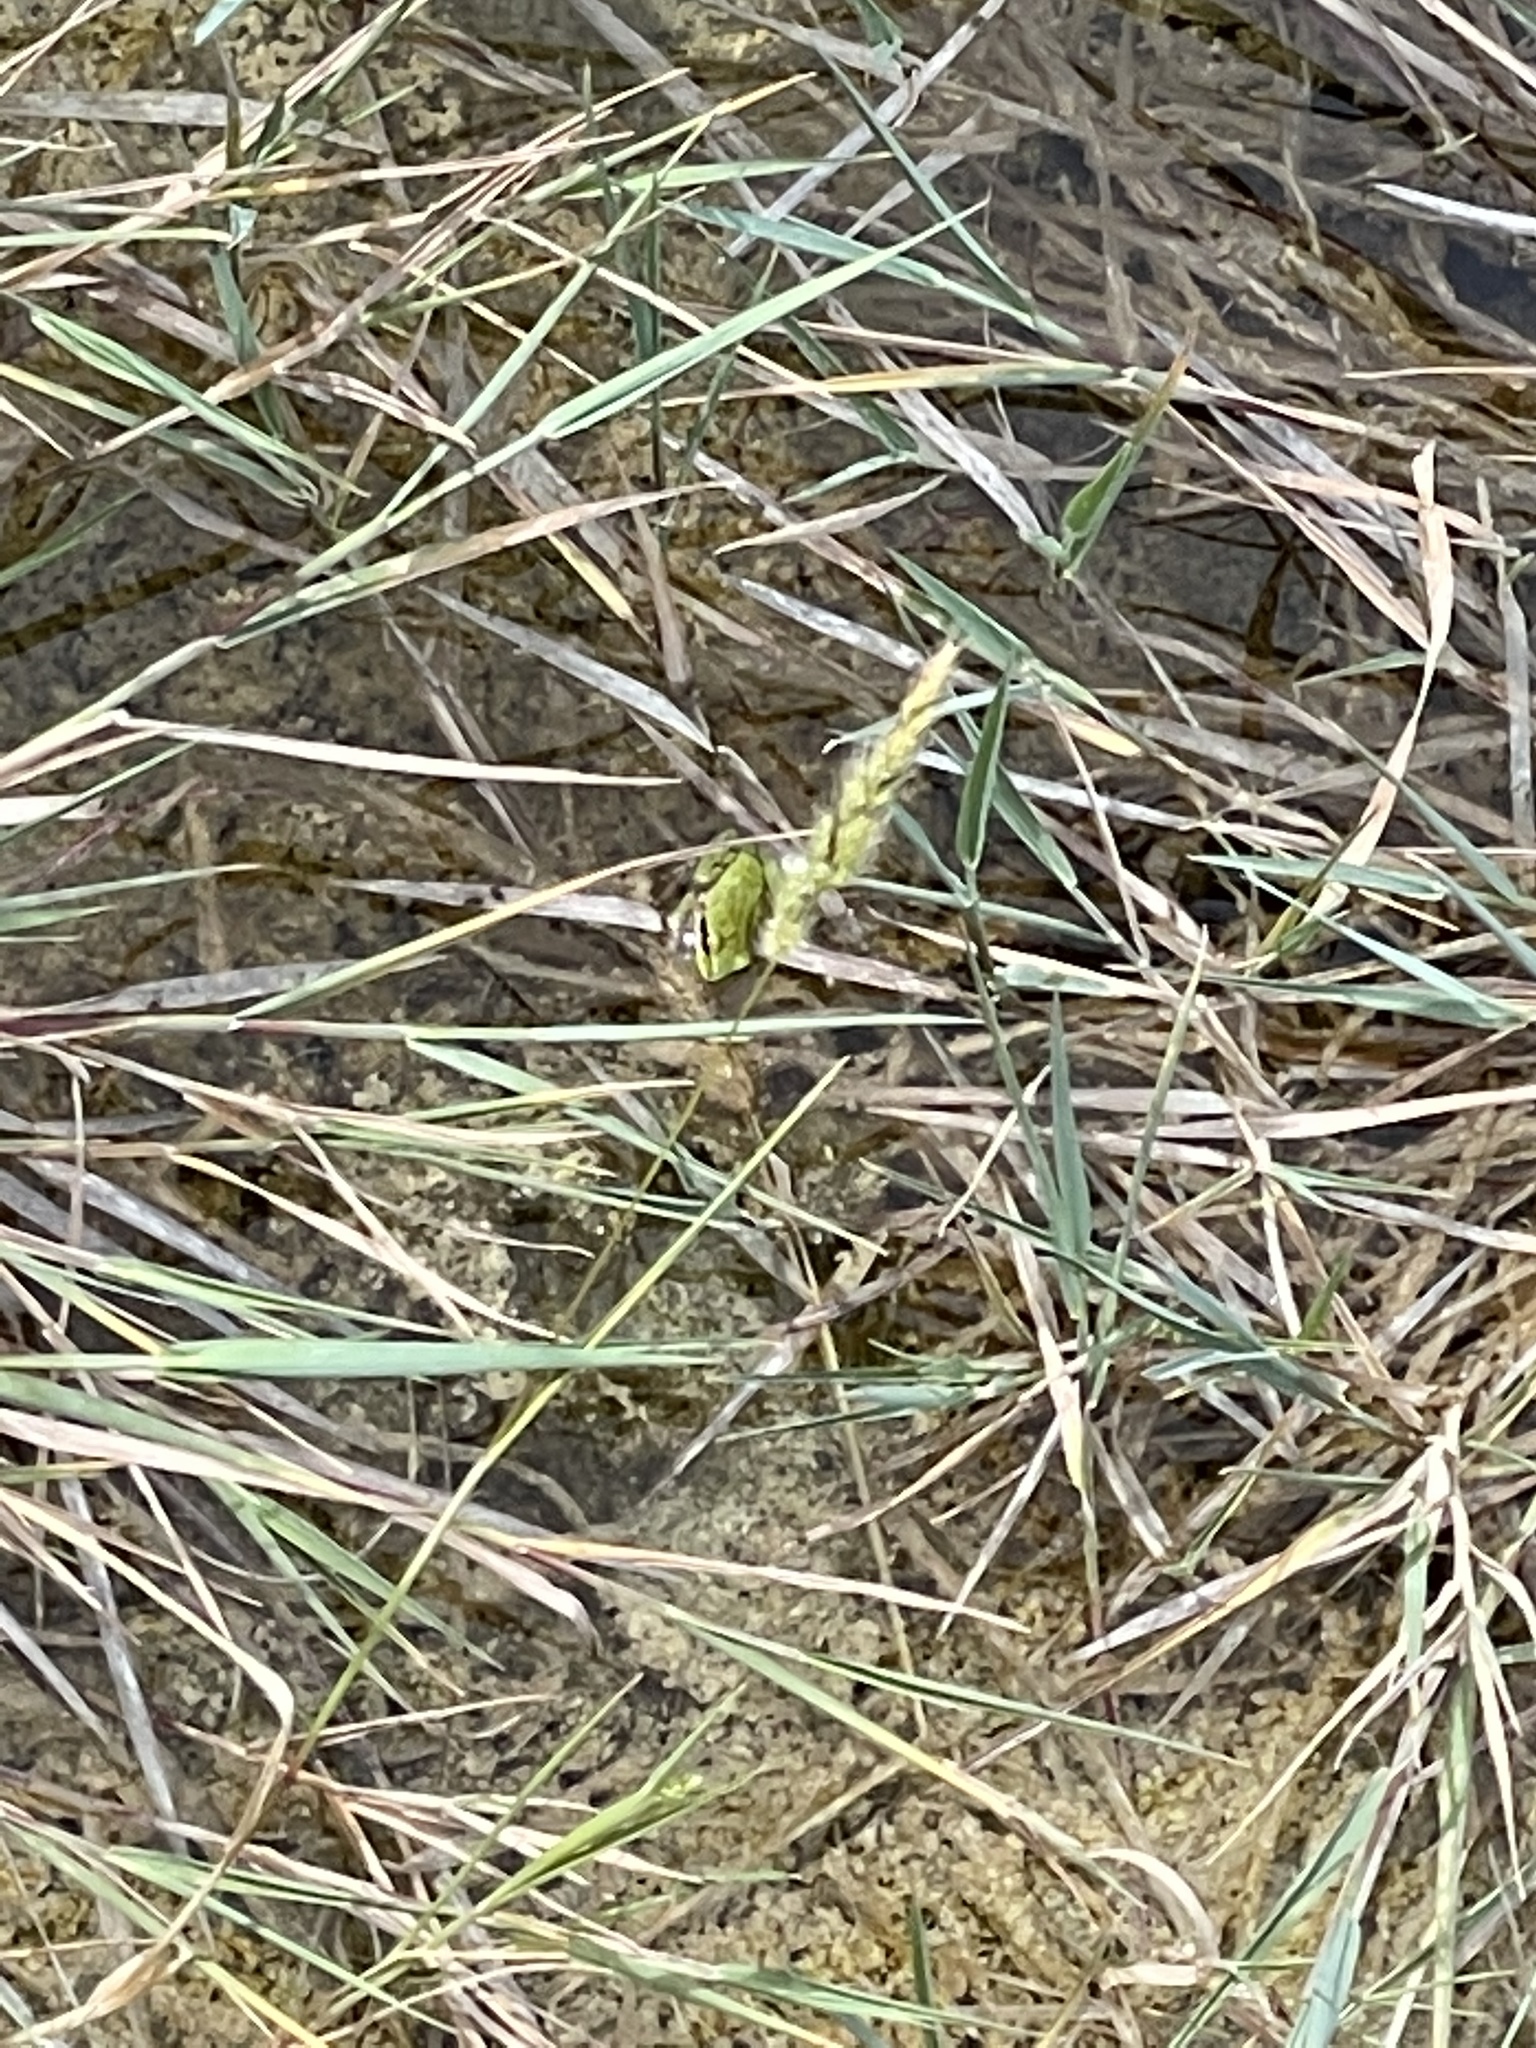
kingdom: Animalia
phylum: Chordata
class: Amphibia
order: Anura
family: Hylidae
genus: Pseudacris
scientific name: Pseudacris regilla
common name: Pacific chorus frog
